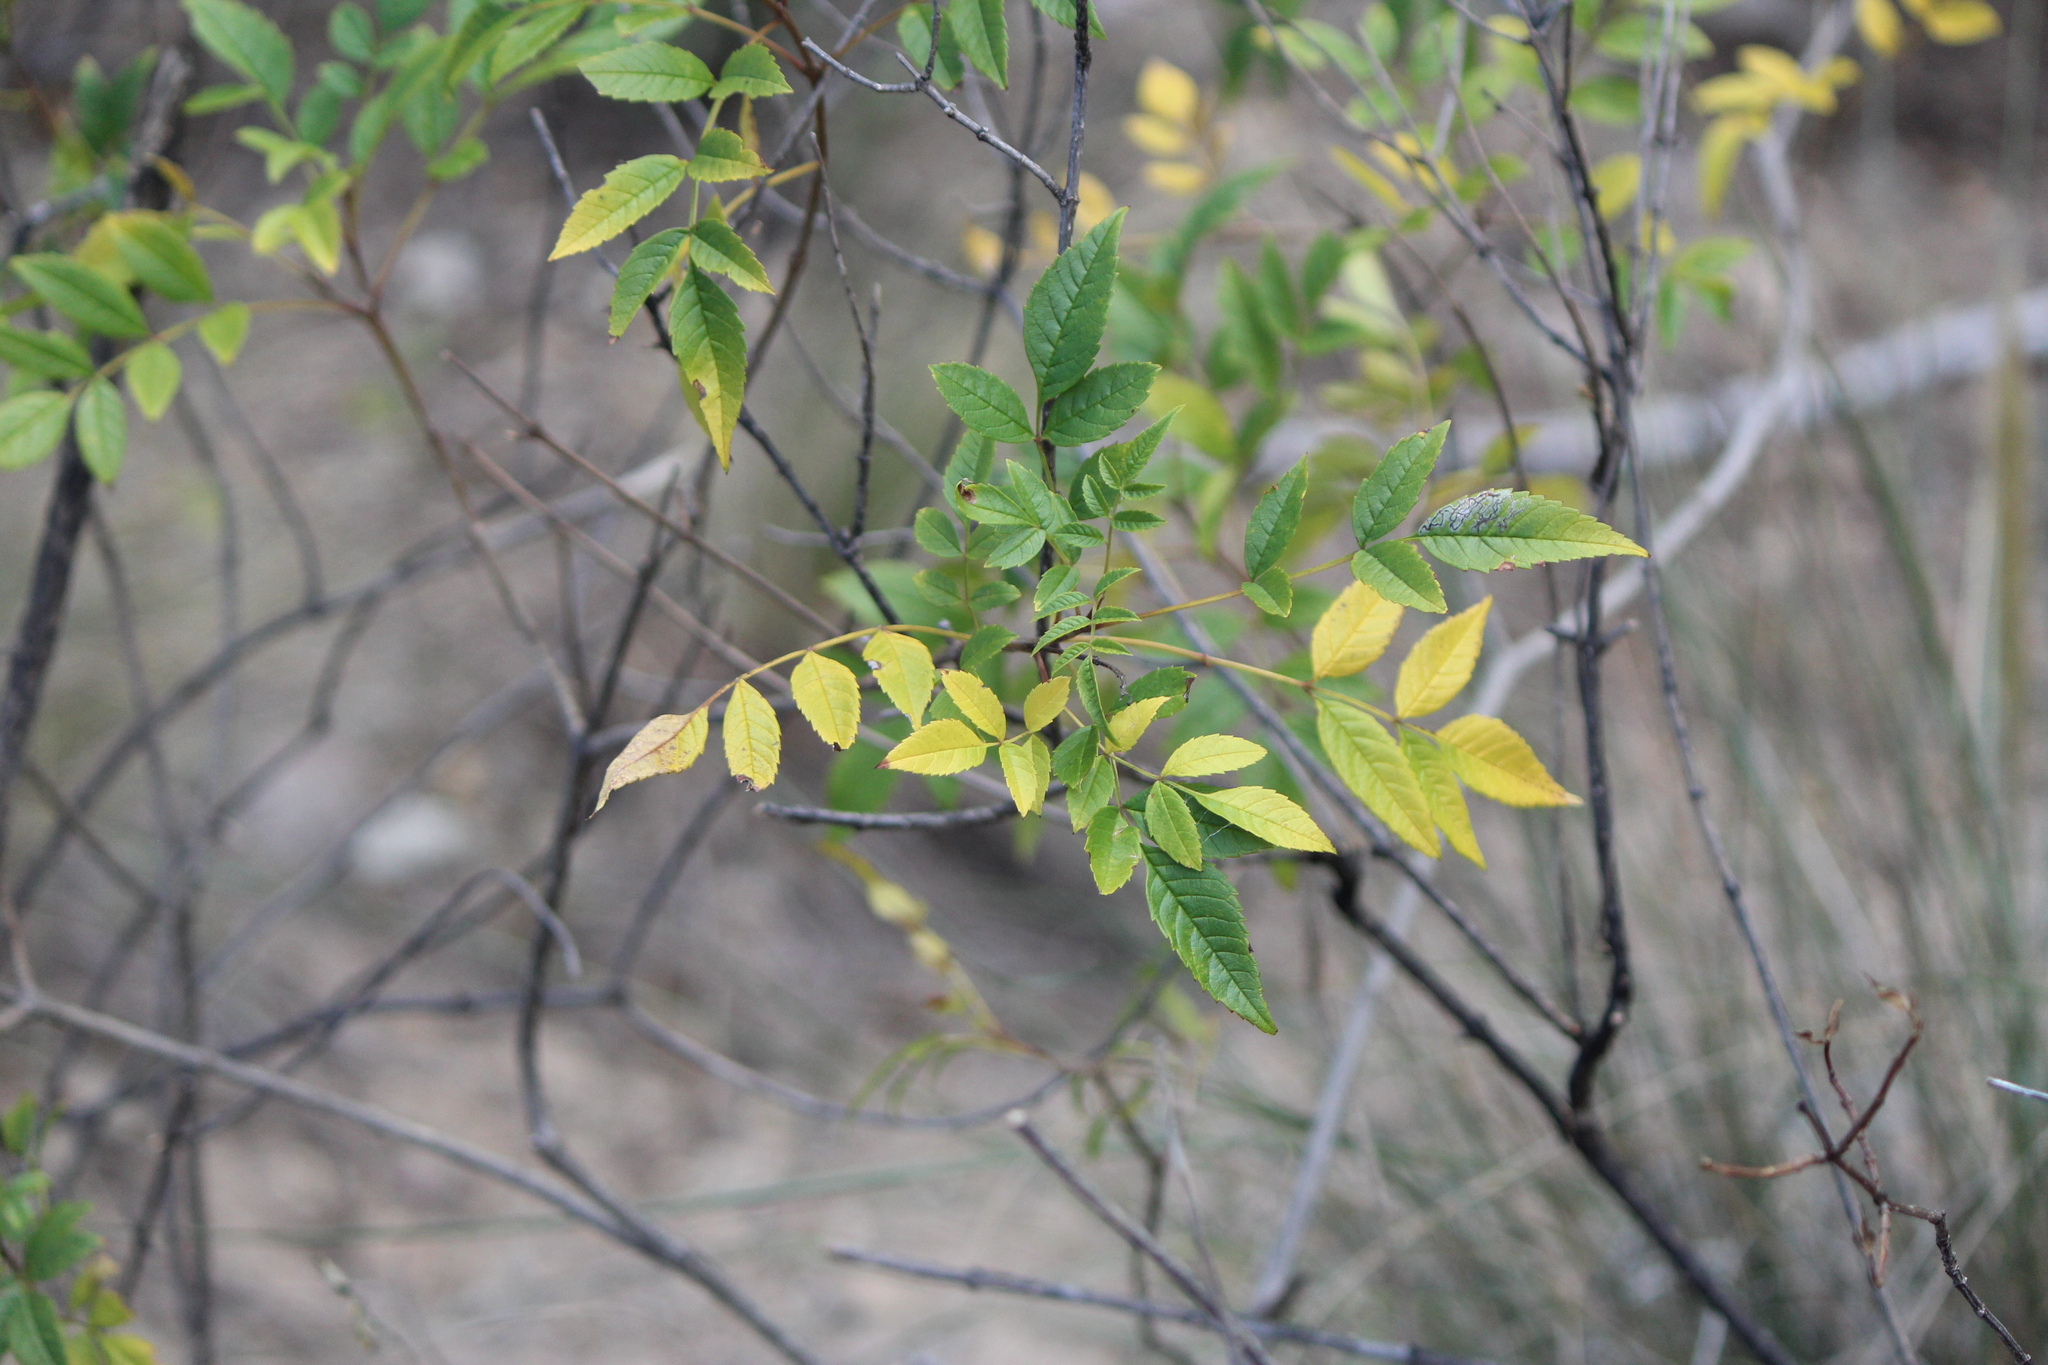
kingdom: Plantae
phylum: Tracheophyta
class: Magnoliopsida
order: Lamiales
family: Bignoniaceae
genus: Tecoma
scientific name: Tecoma stans
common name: Yellow trumpetbush
